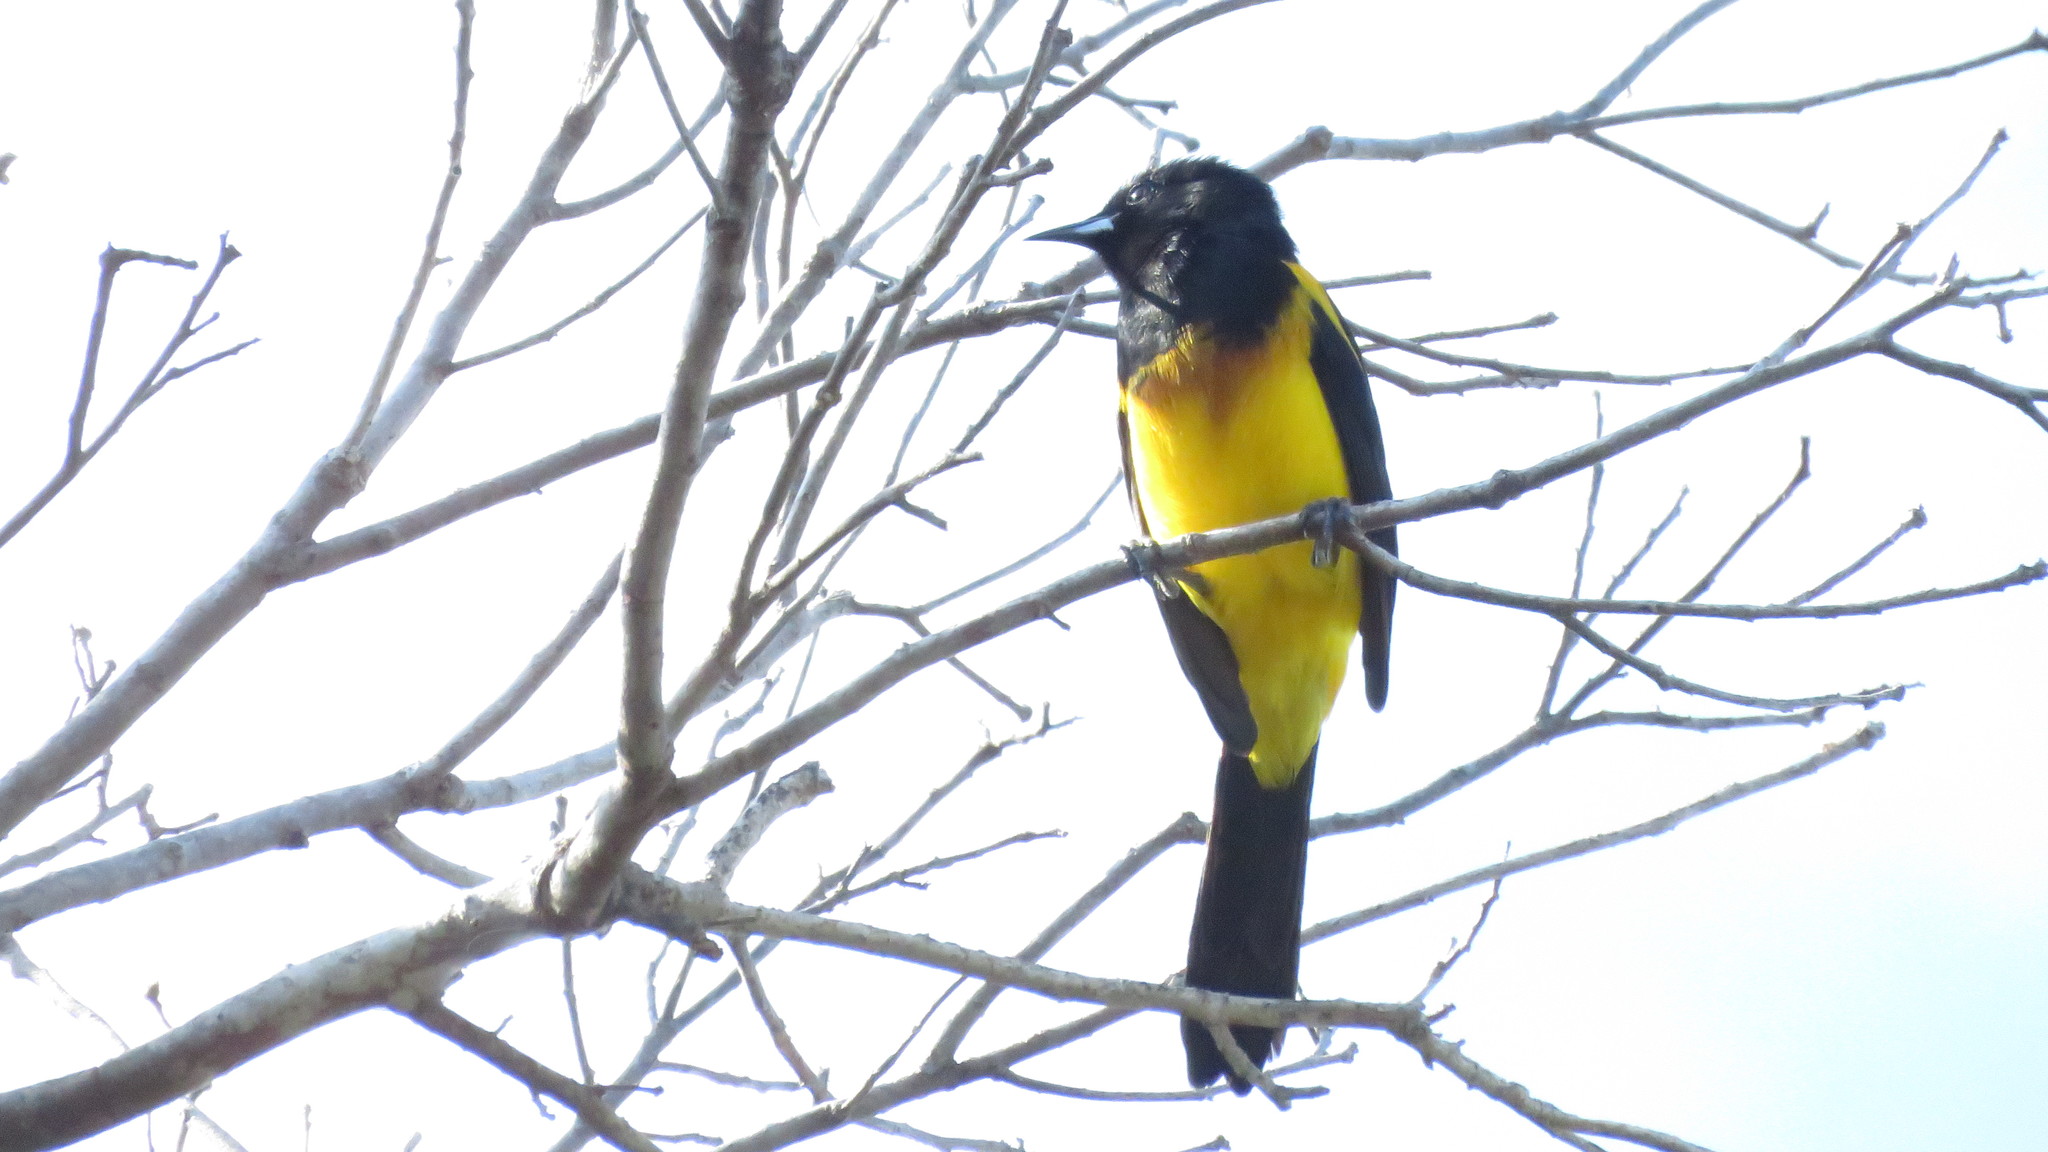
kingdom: Animalia
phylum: Chordata
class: Aves
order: Passeriformes
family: Icteridae
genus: Icterus
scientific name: Icterus prosthemelas
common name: Black-cowled oriole
